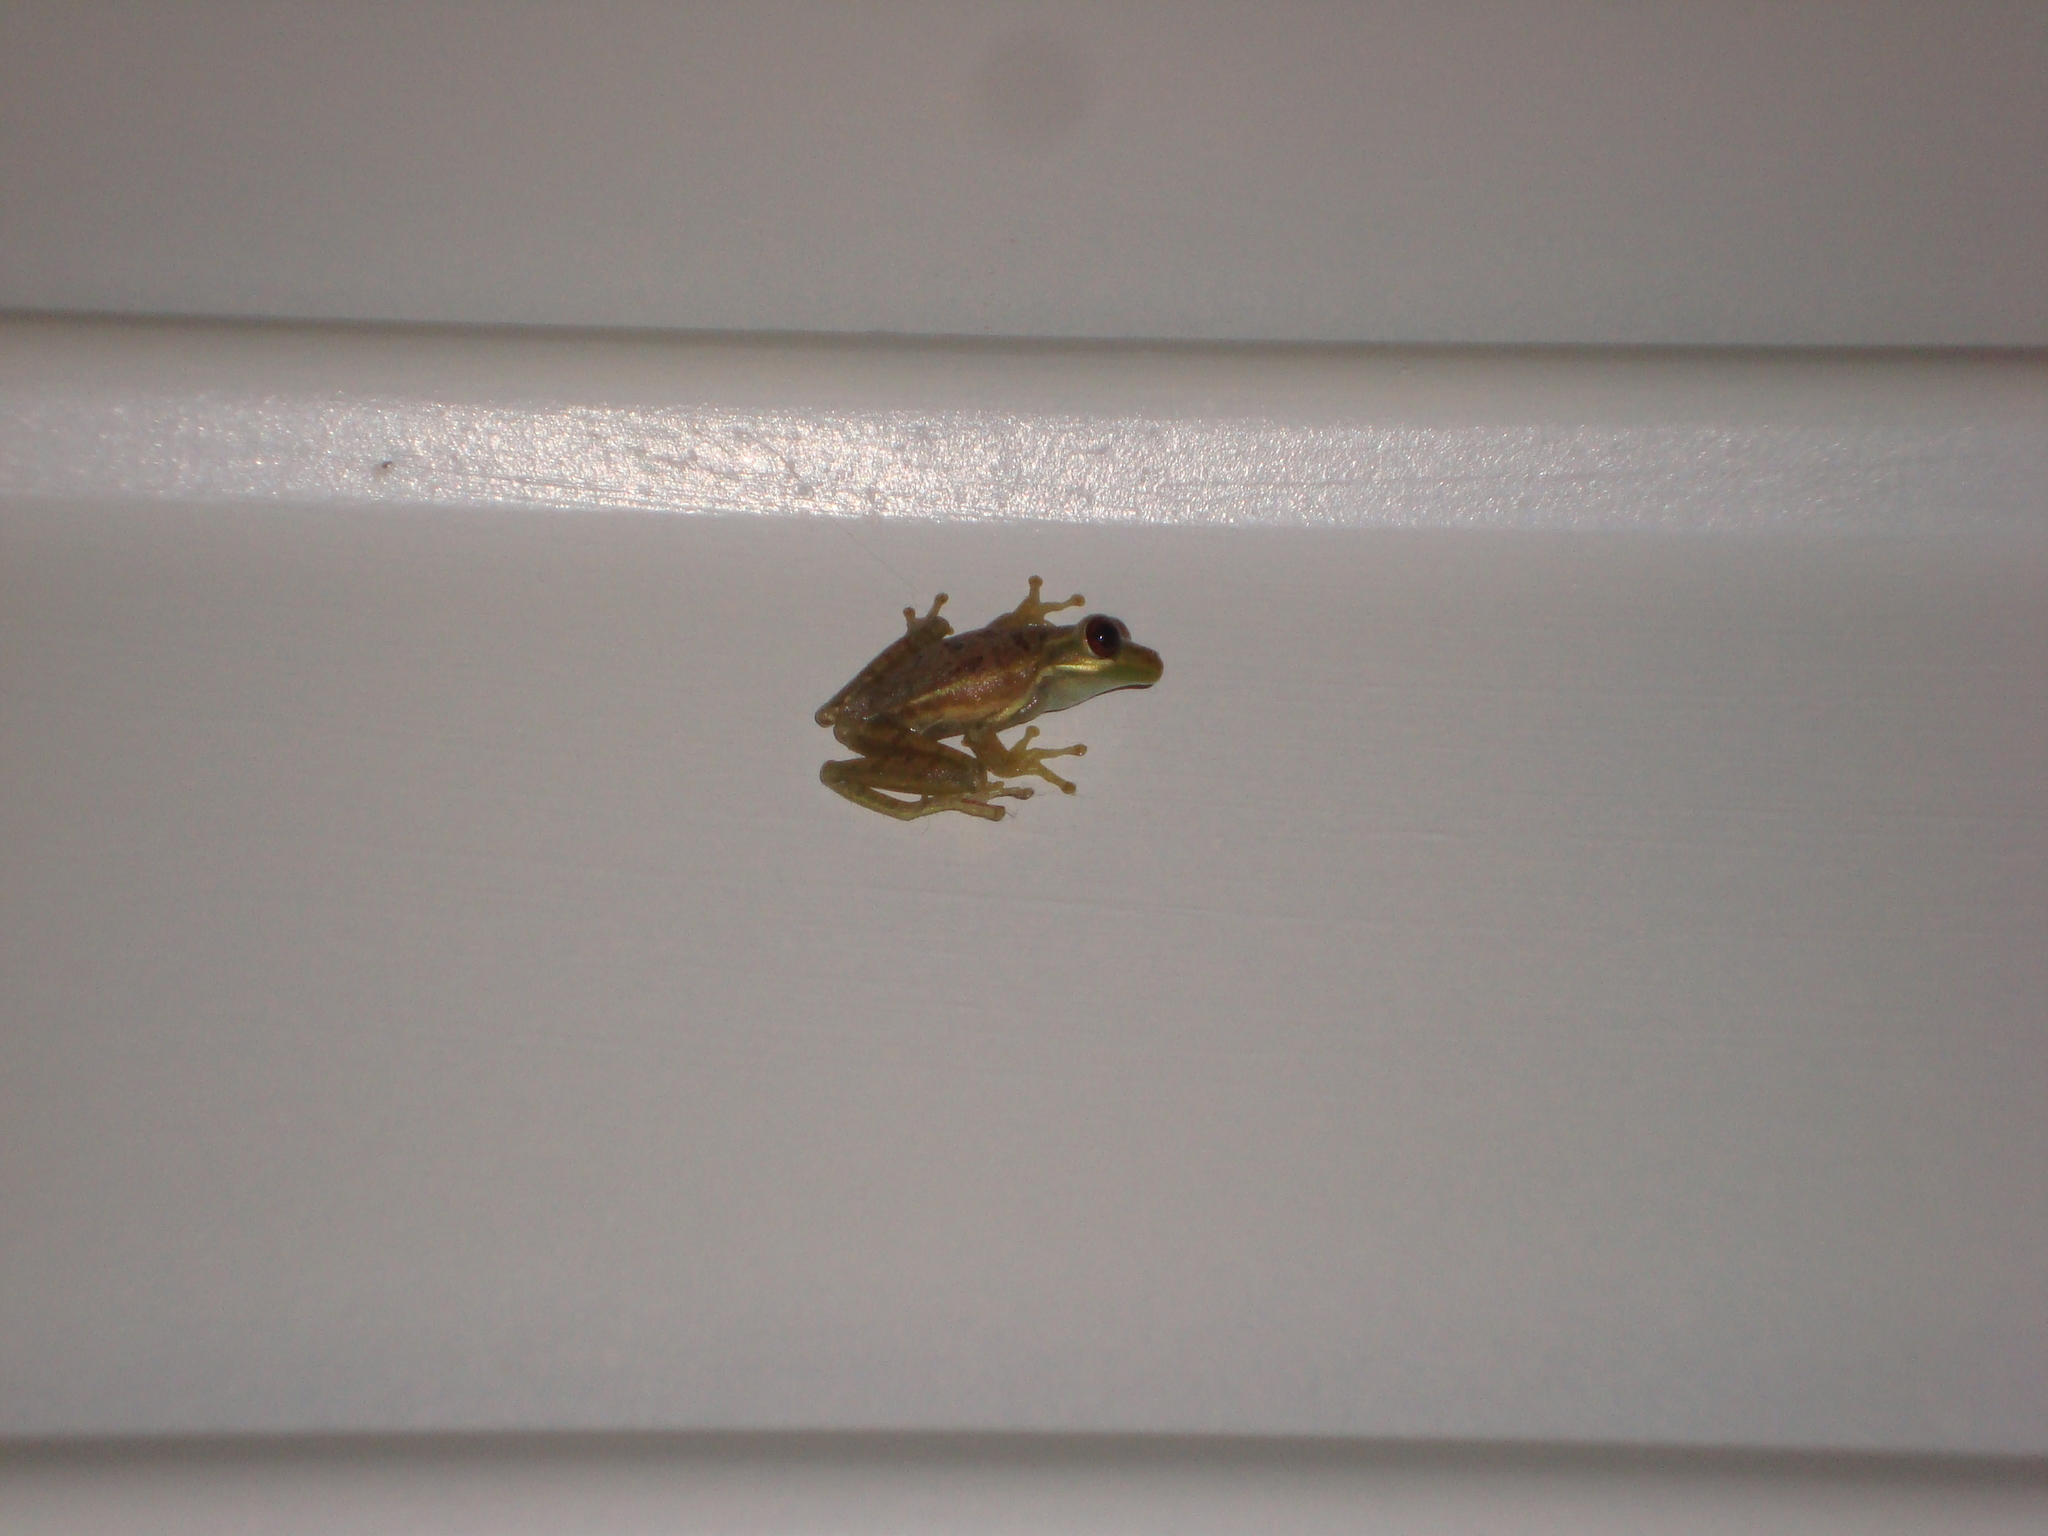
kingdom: Animalia
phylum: Chordata
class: Amphibia
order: Anura
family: Hylidae
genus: Osteopilus
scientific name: Osteopilus septentrionalis
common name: Cuban treefrog
